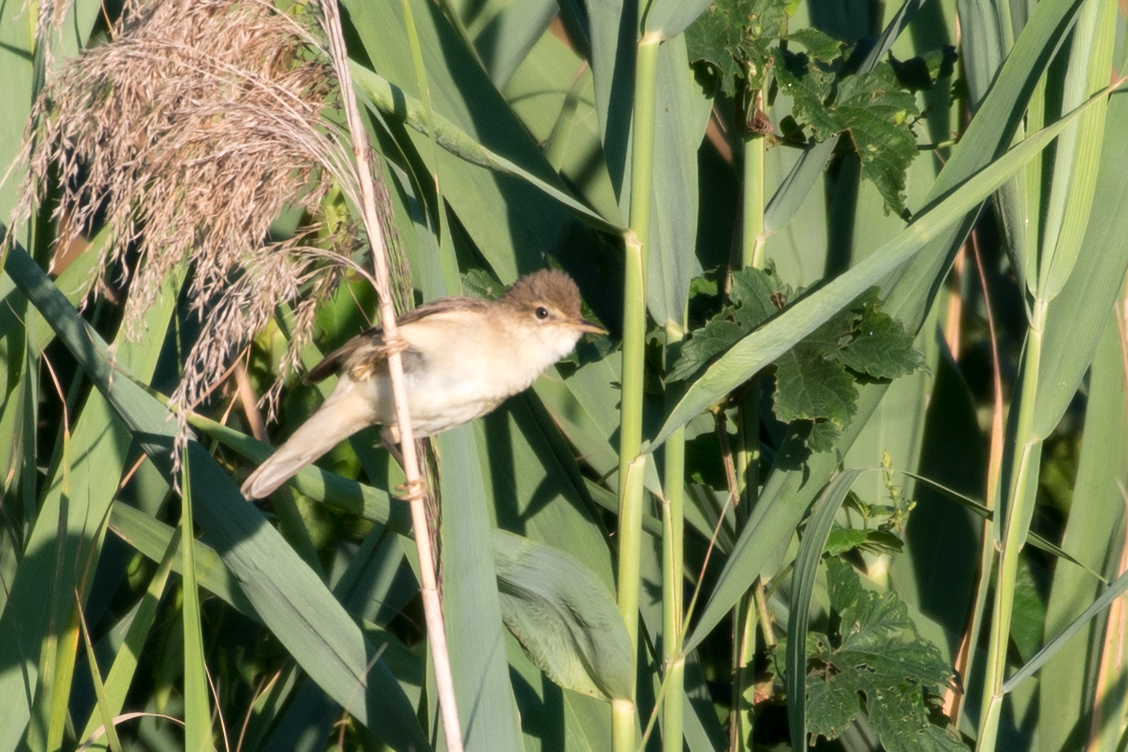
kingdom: Animalia
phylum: Chordata
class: Aves
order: Passeriformes
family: Acrocephalidae
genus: Acrocephalus
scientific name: Acrocephalus palustris
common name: Marsh warbler
